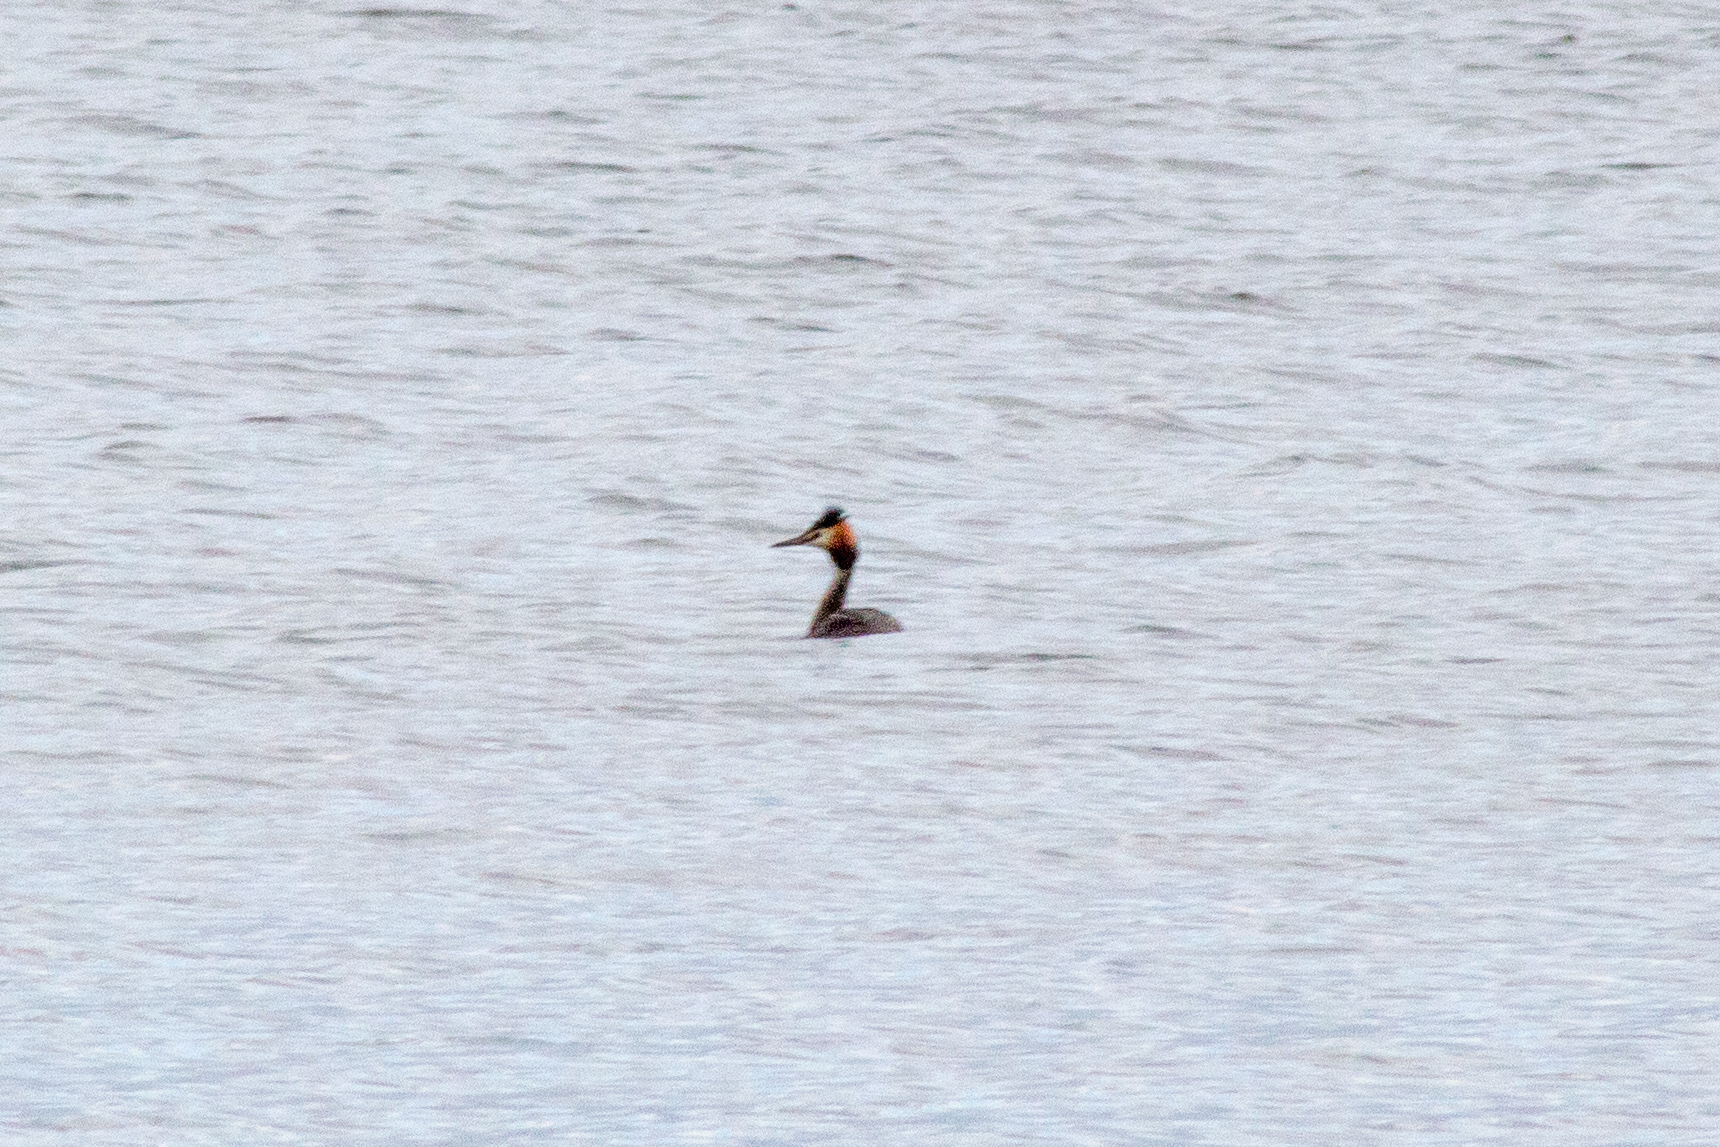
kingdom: Animalia
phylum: Chordata
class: Aves
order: Podicipediformes
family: Podicipedidae
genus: Podiceps
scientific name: Podiceps cristatus
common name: Great crested grebe
